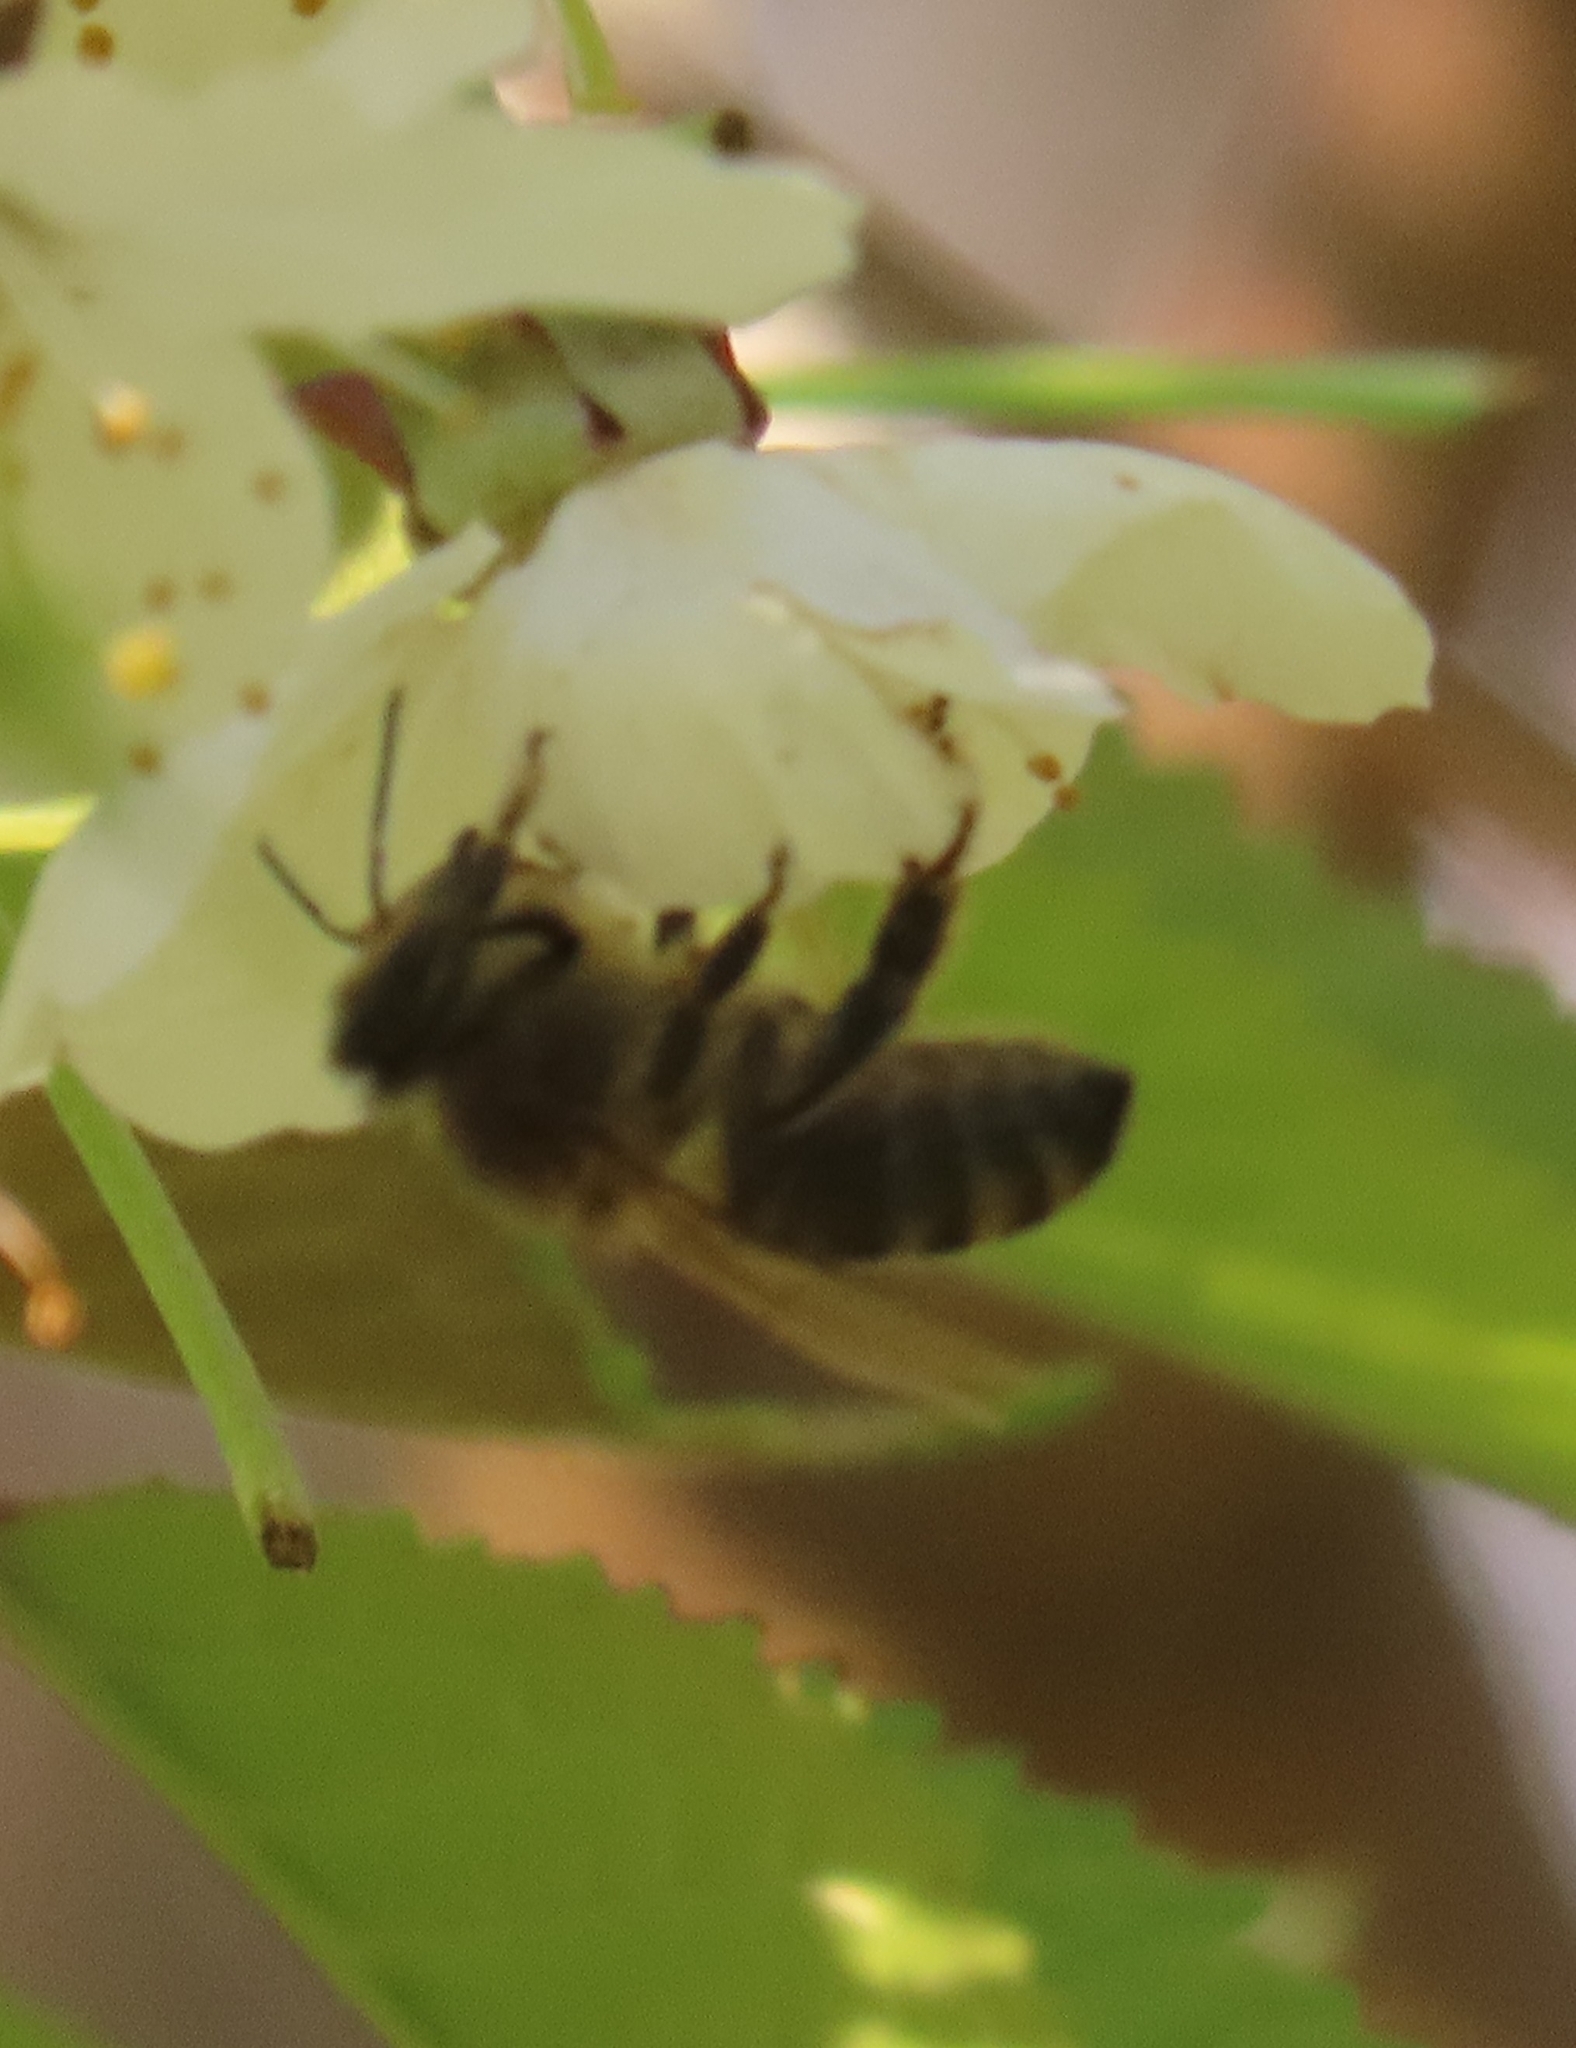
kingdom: Animalia
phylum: Arthropoda
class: Insecta
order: Hymenoptera
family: Apidae
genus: Apis
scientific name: Apis mellifera
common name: Honey bee
